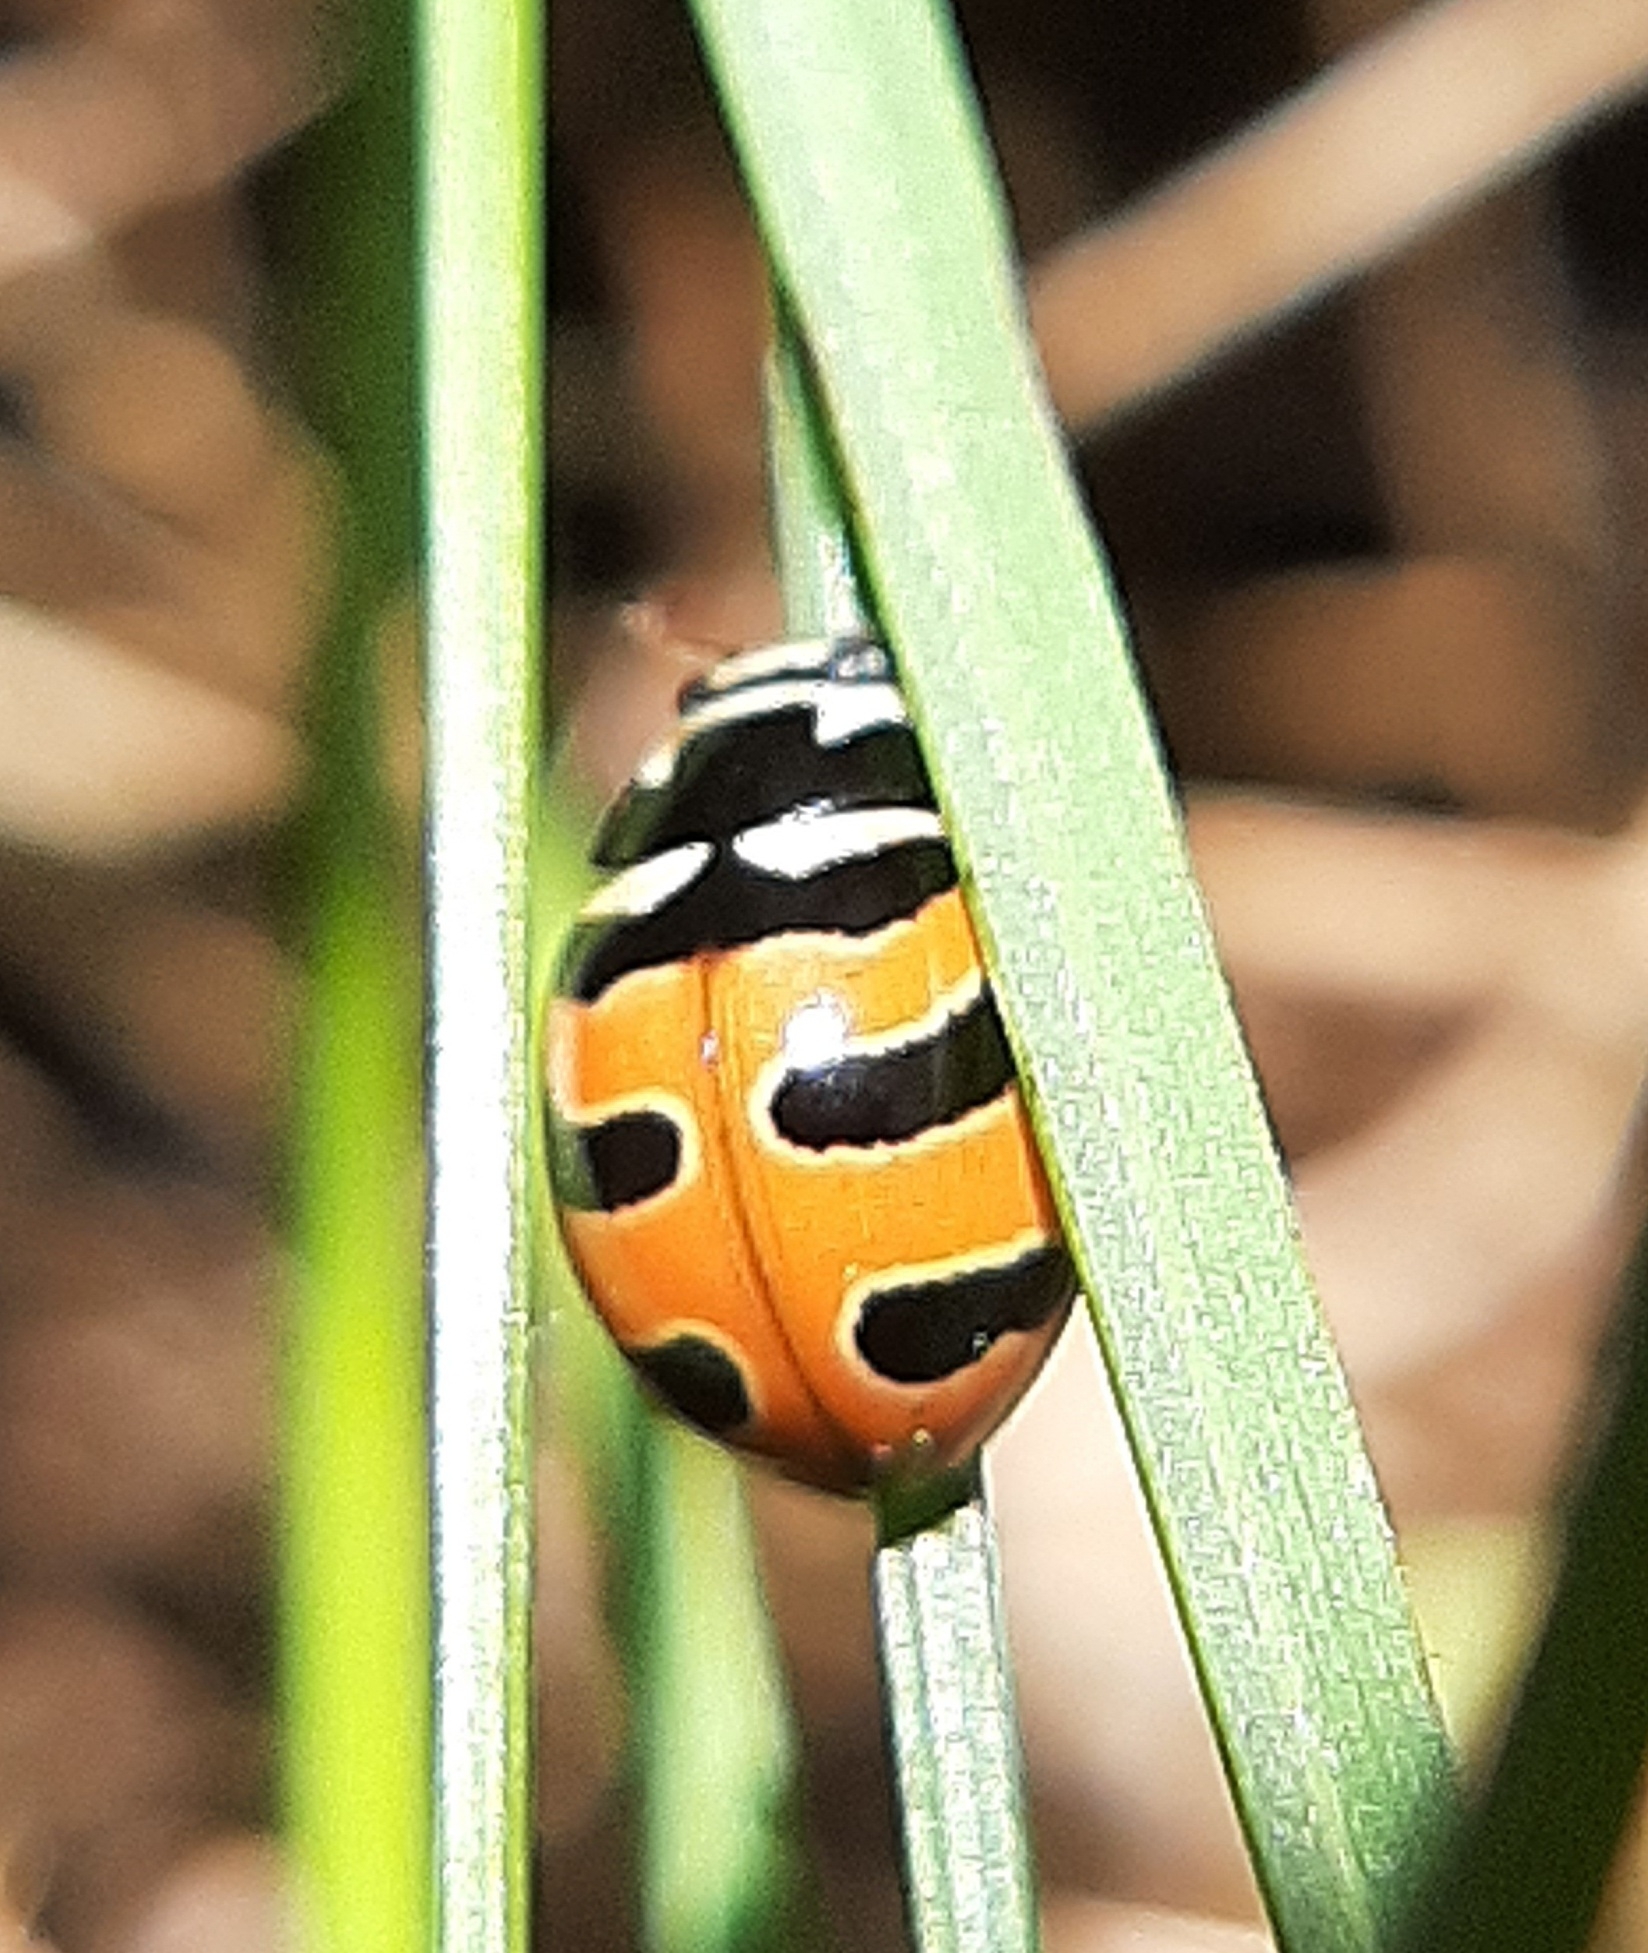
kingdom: Animalia
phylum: Arthropoda
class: Insecta
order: Coleoptera
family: Coccinellidae
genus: Coccinella
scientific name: Coccinella trifasciata
